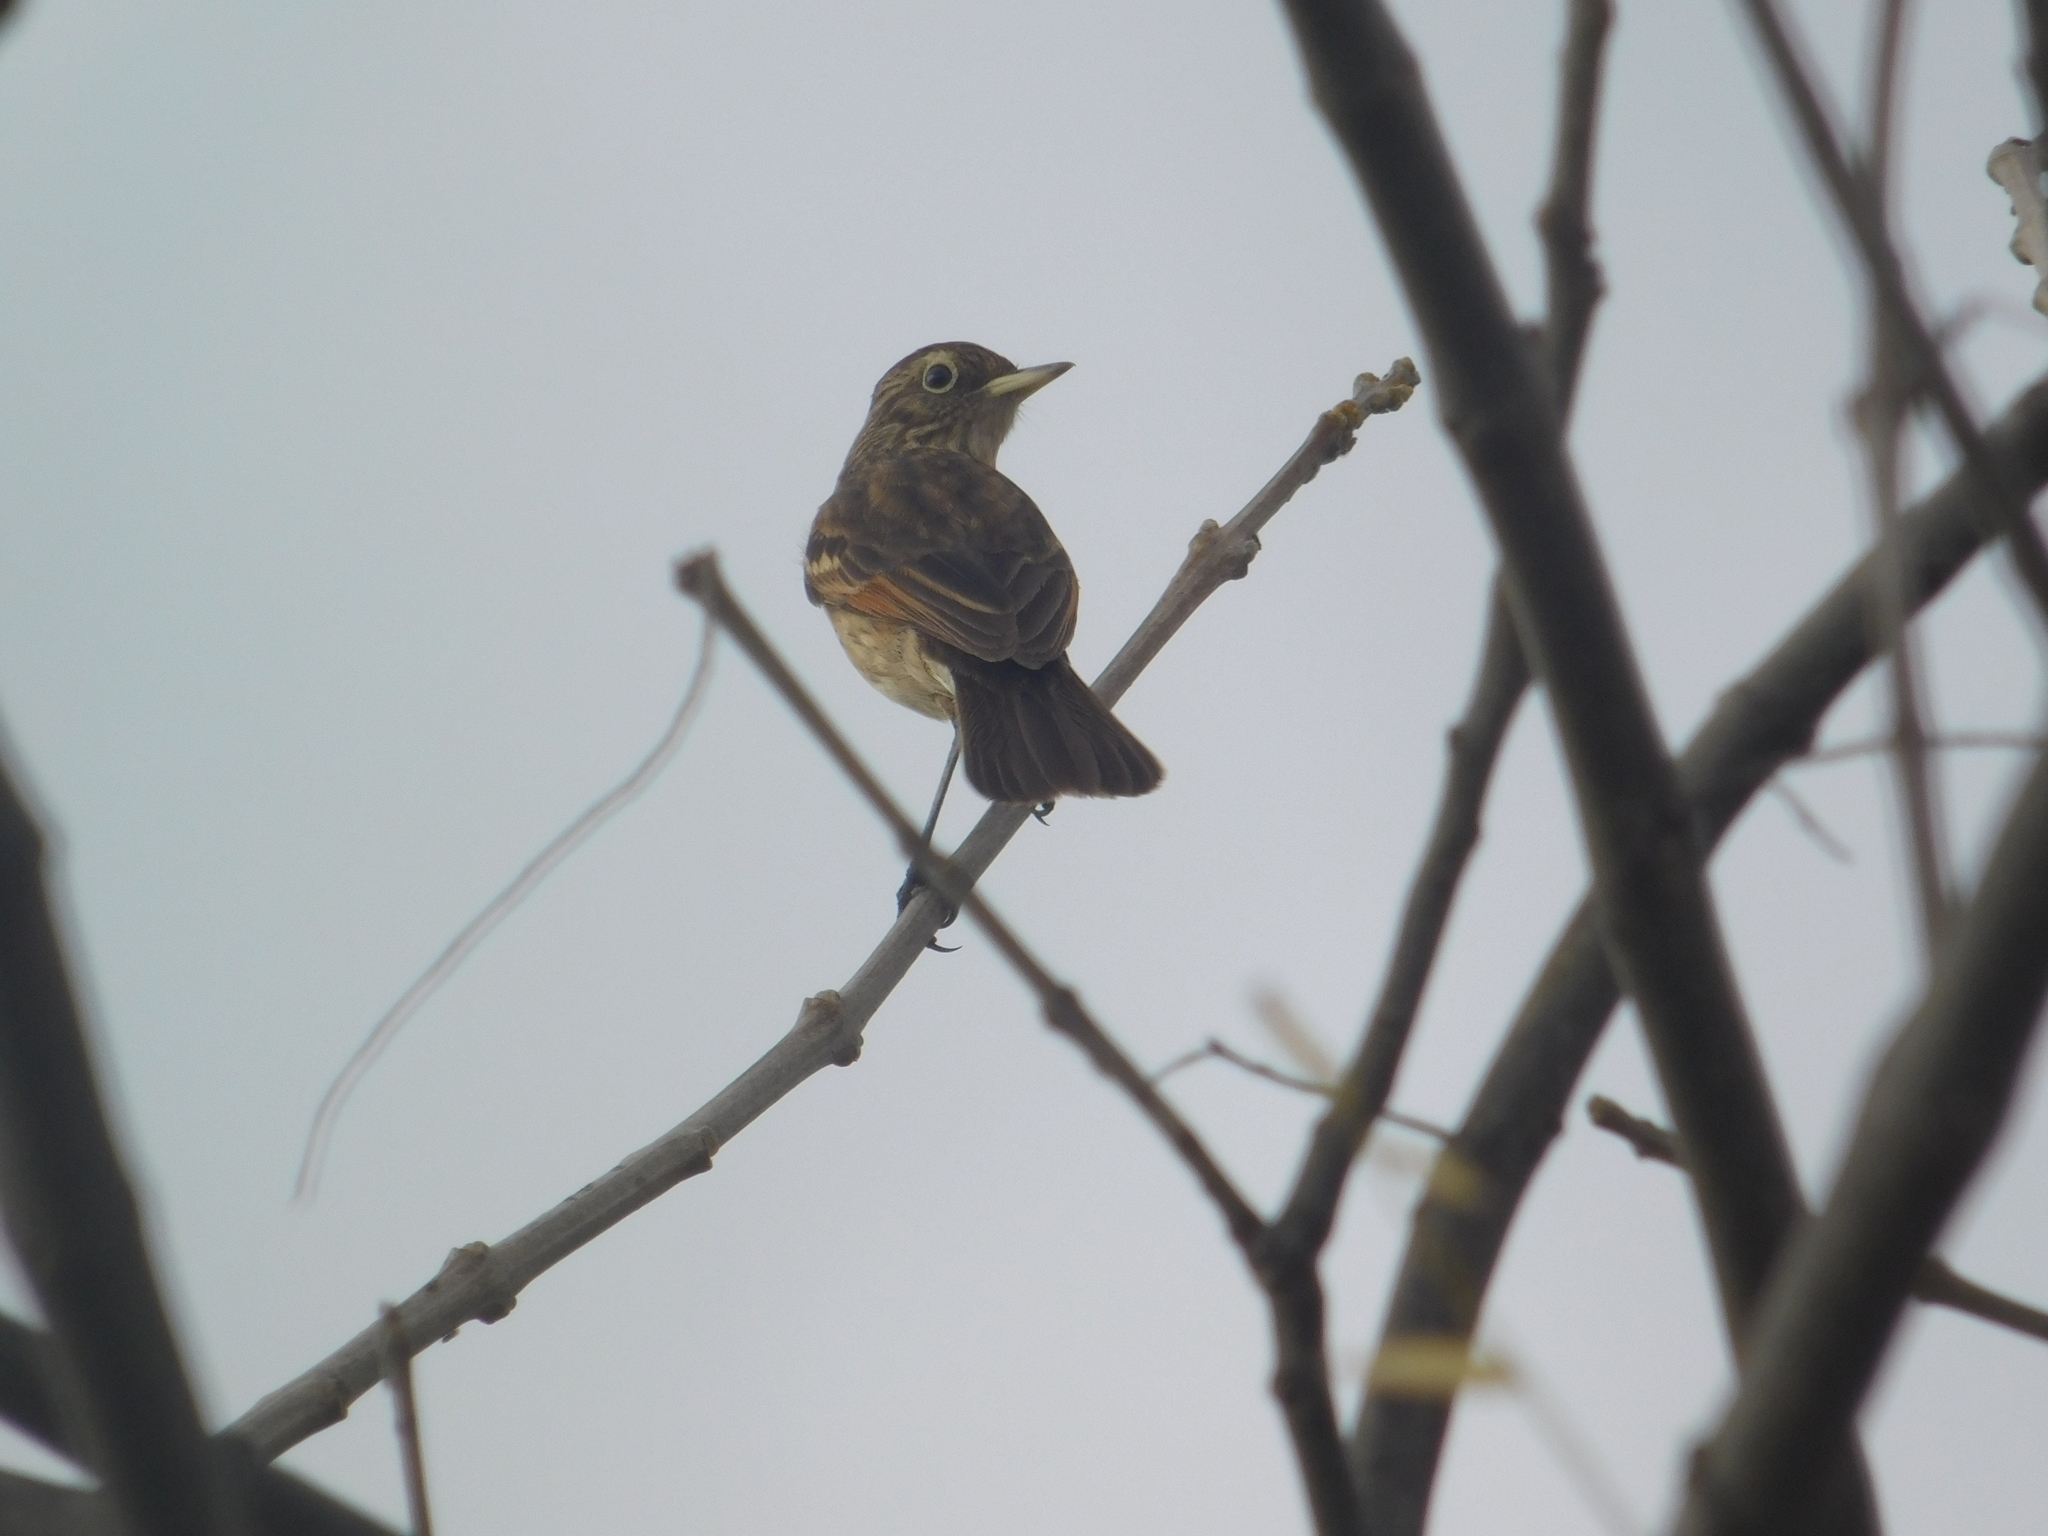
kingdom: Animalia
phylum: Chordata
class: Aves
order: Passeriformes
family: Tyrannidae
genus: Hymenops
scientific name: Hymenops perspicillatus
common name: Spectacled tyrant
